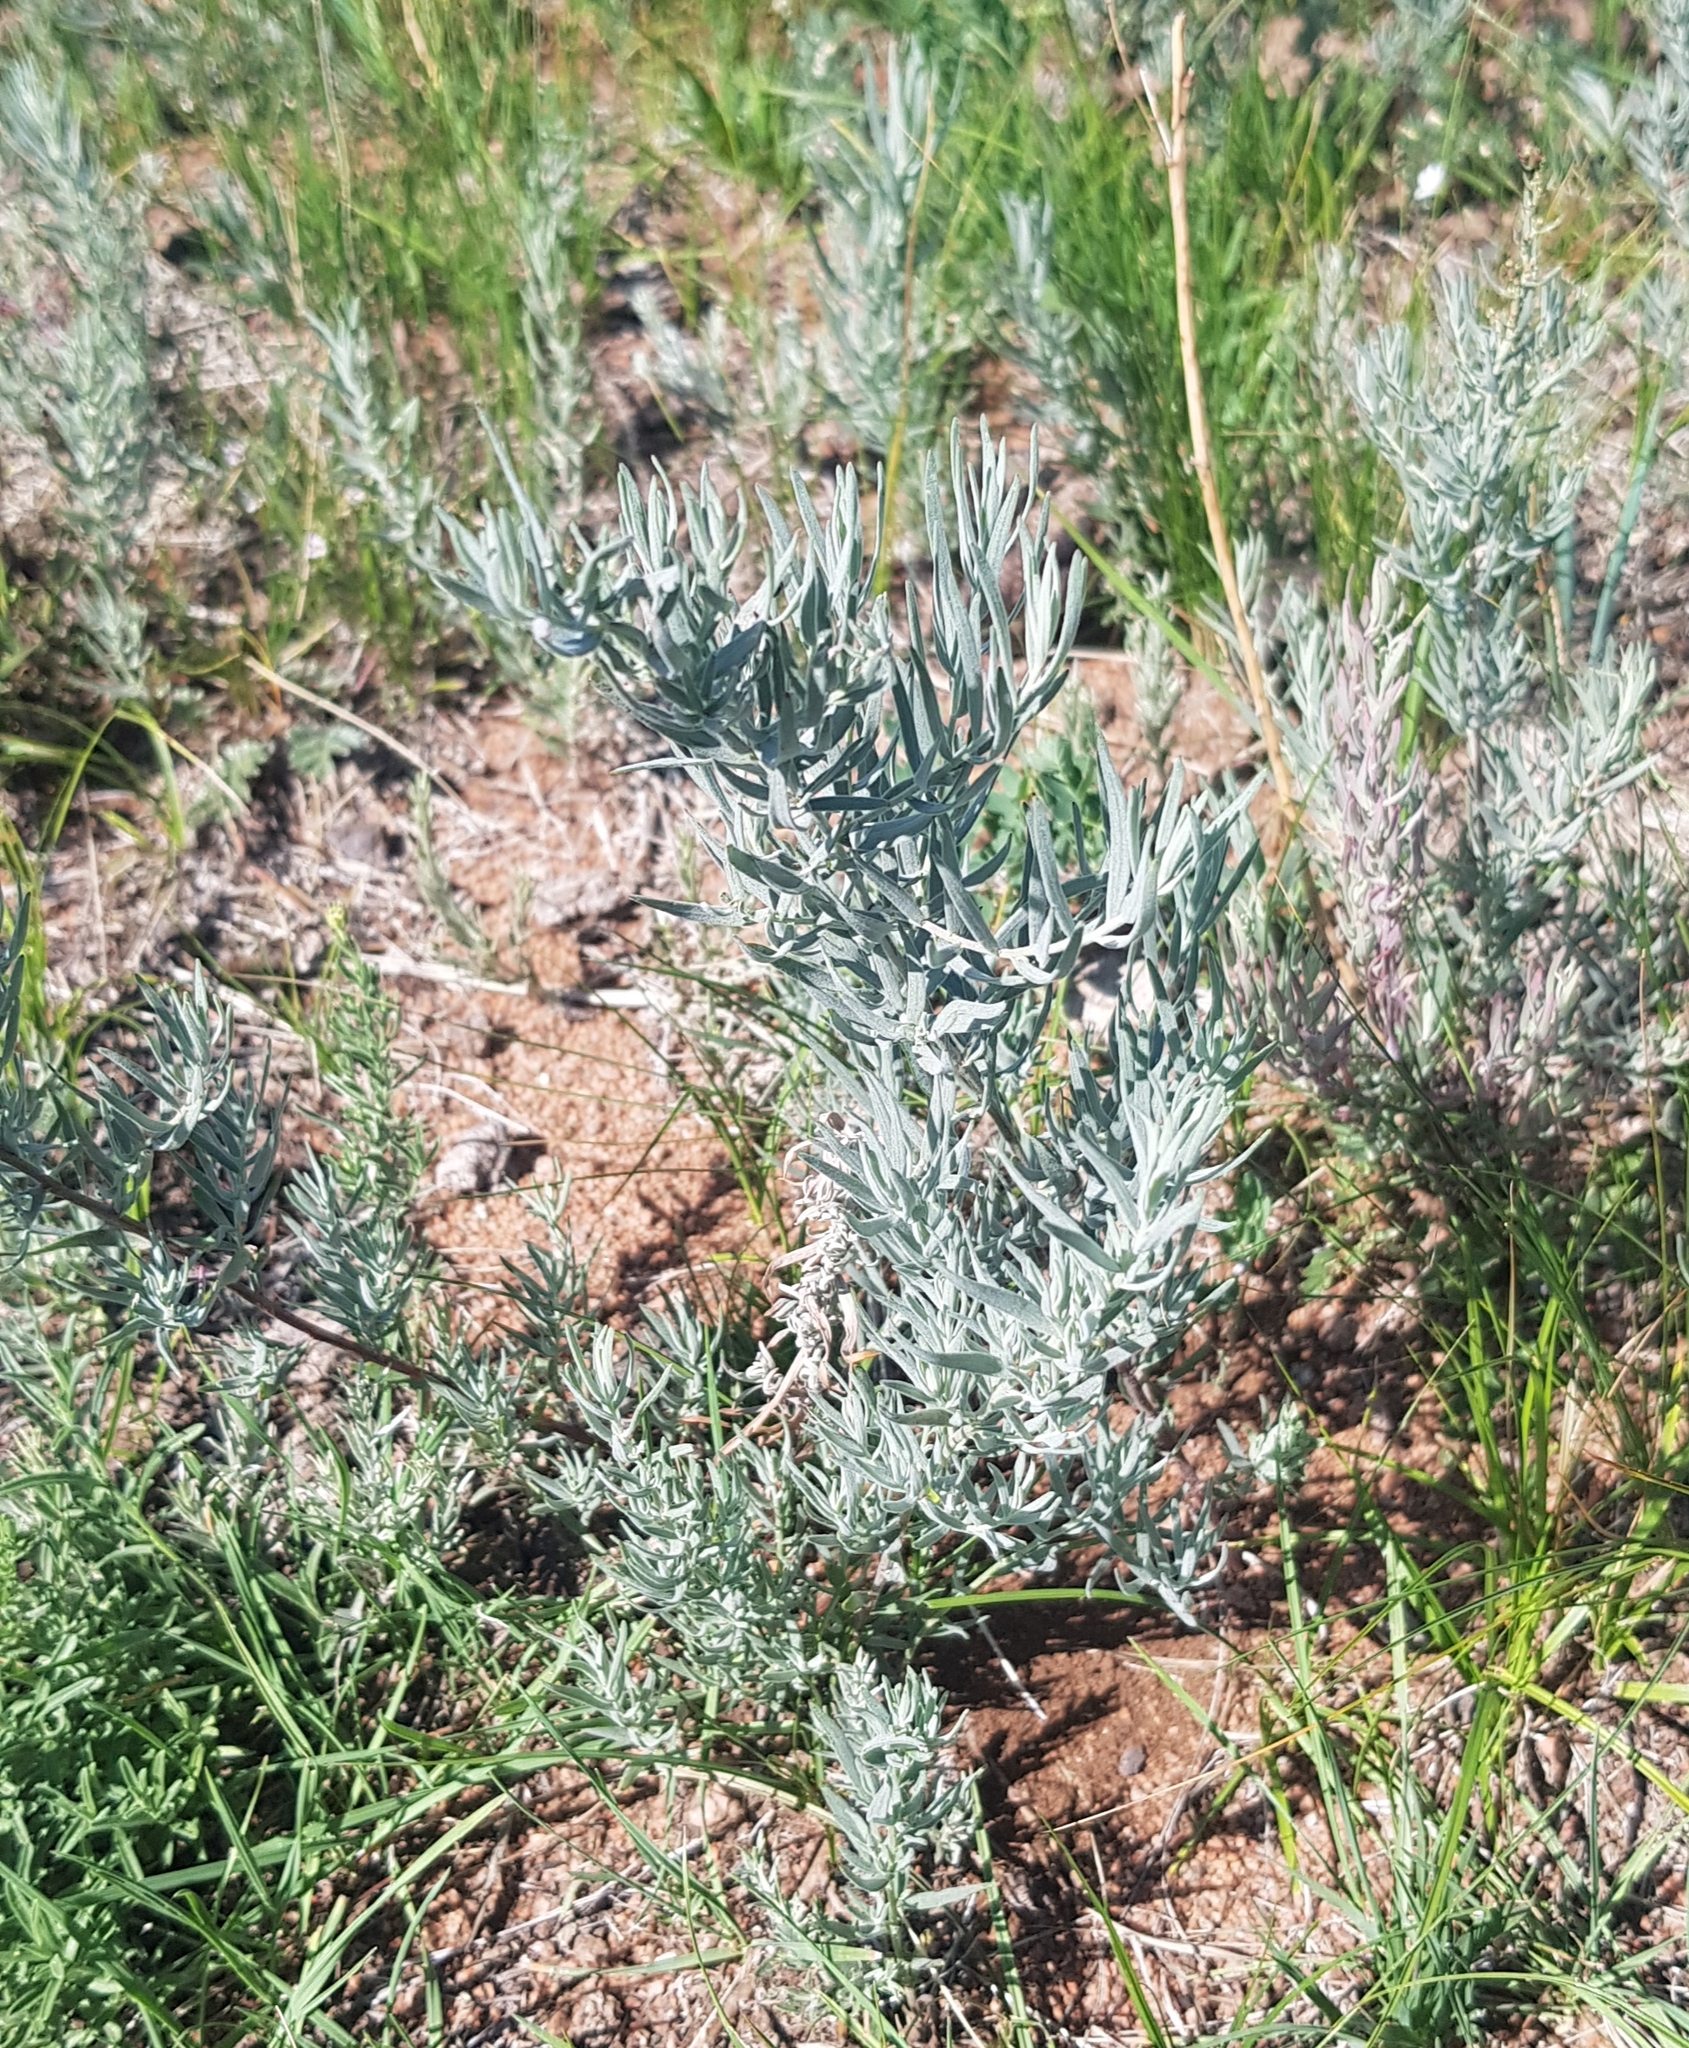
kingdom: Plantae
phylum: Tracheophyta
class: Magnoliopsida
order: Caryophyllales
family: Amaranthaceae
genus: Krascheninnikovia
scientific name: Krascheninnikovia ceratoides
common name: Pamirian winterfat
